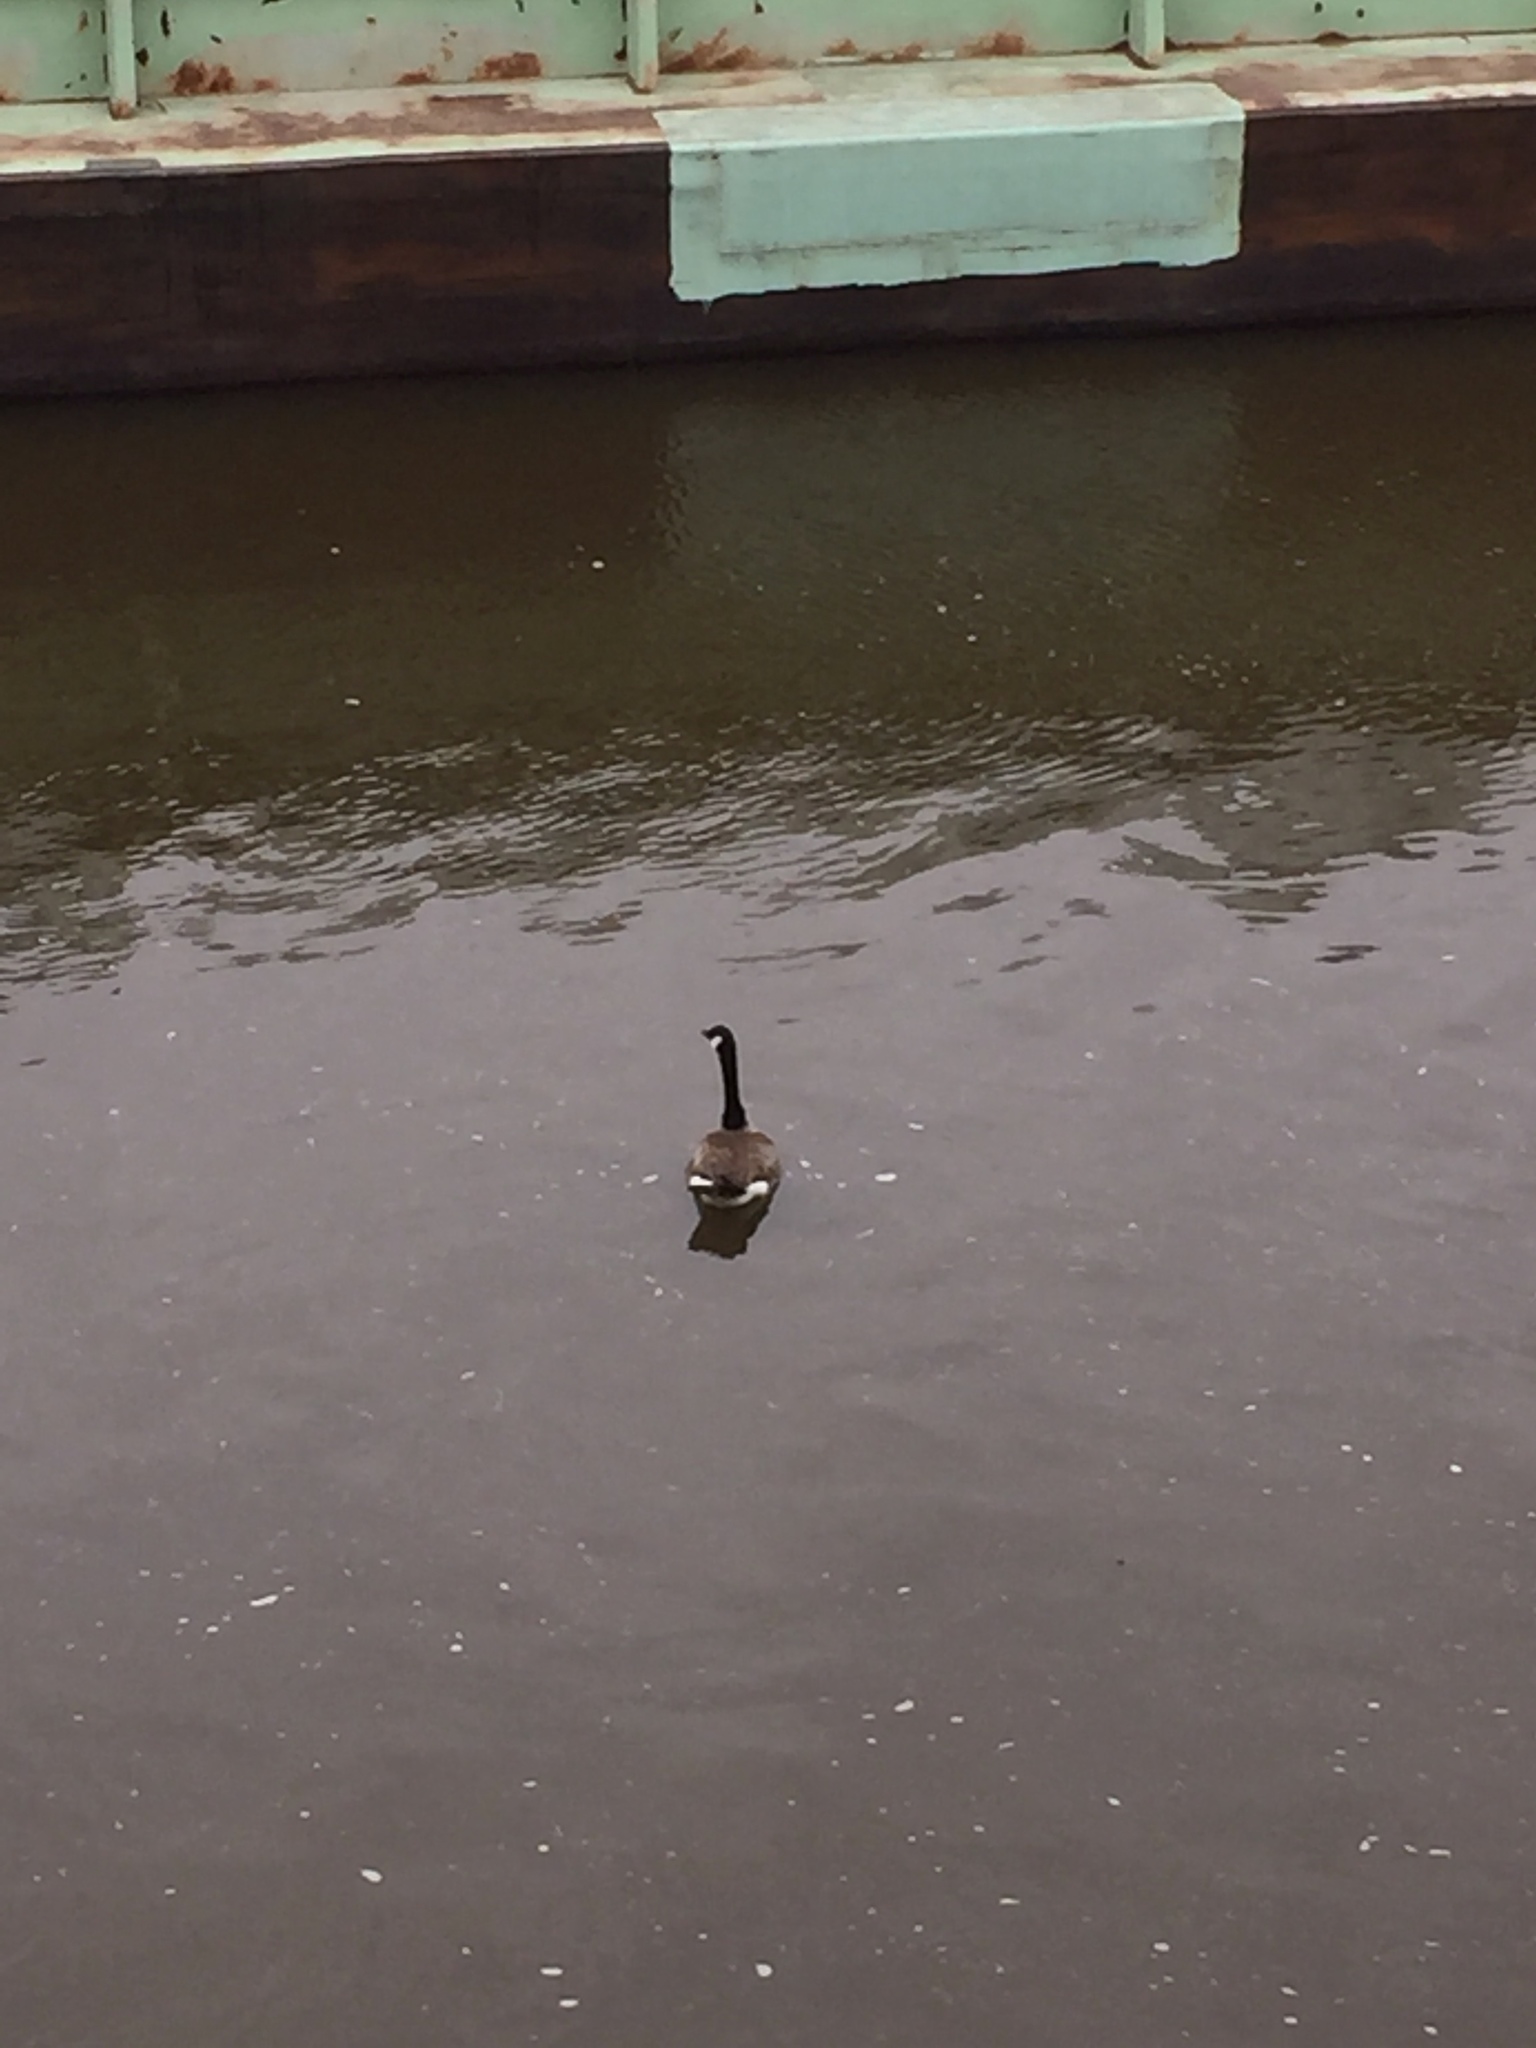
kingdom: Animalia
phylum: Chordata
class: Aves
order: Anseriformes
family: Anatidae
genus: Branta
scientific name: Branta canadensis
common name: Canada goose
